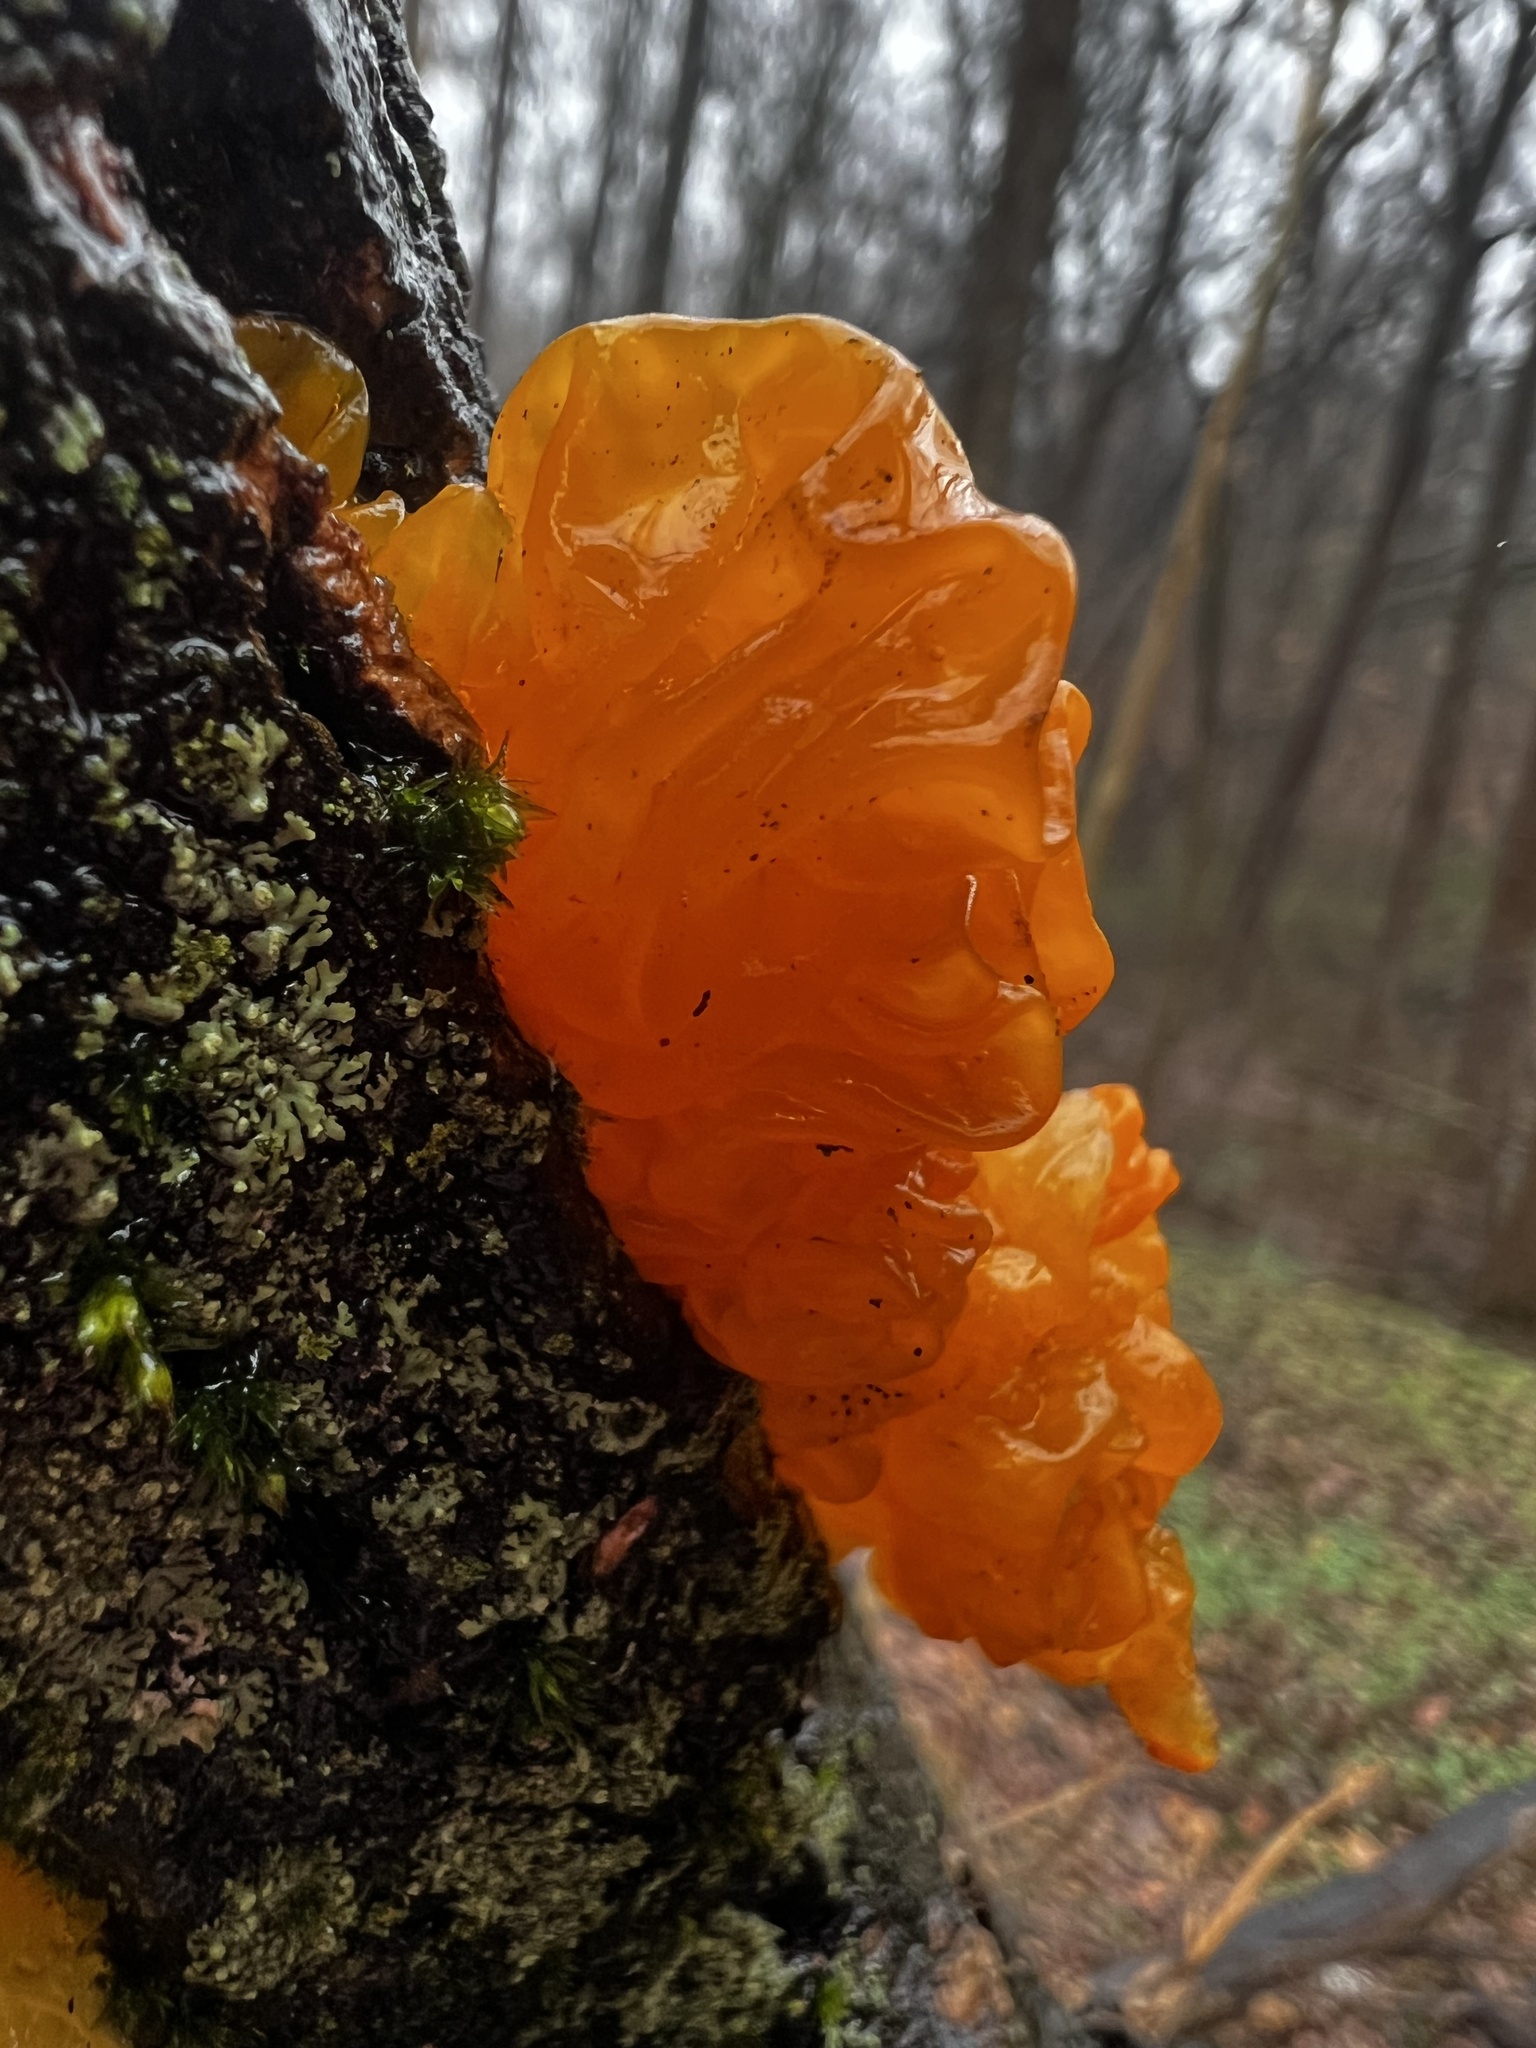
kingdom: Fungi
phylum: Basidiomycota
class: Tremellomycetes
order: Tremellales
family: Tremellaceae
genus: Tremella
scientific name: Tremella mesenterica
